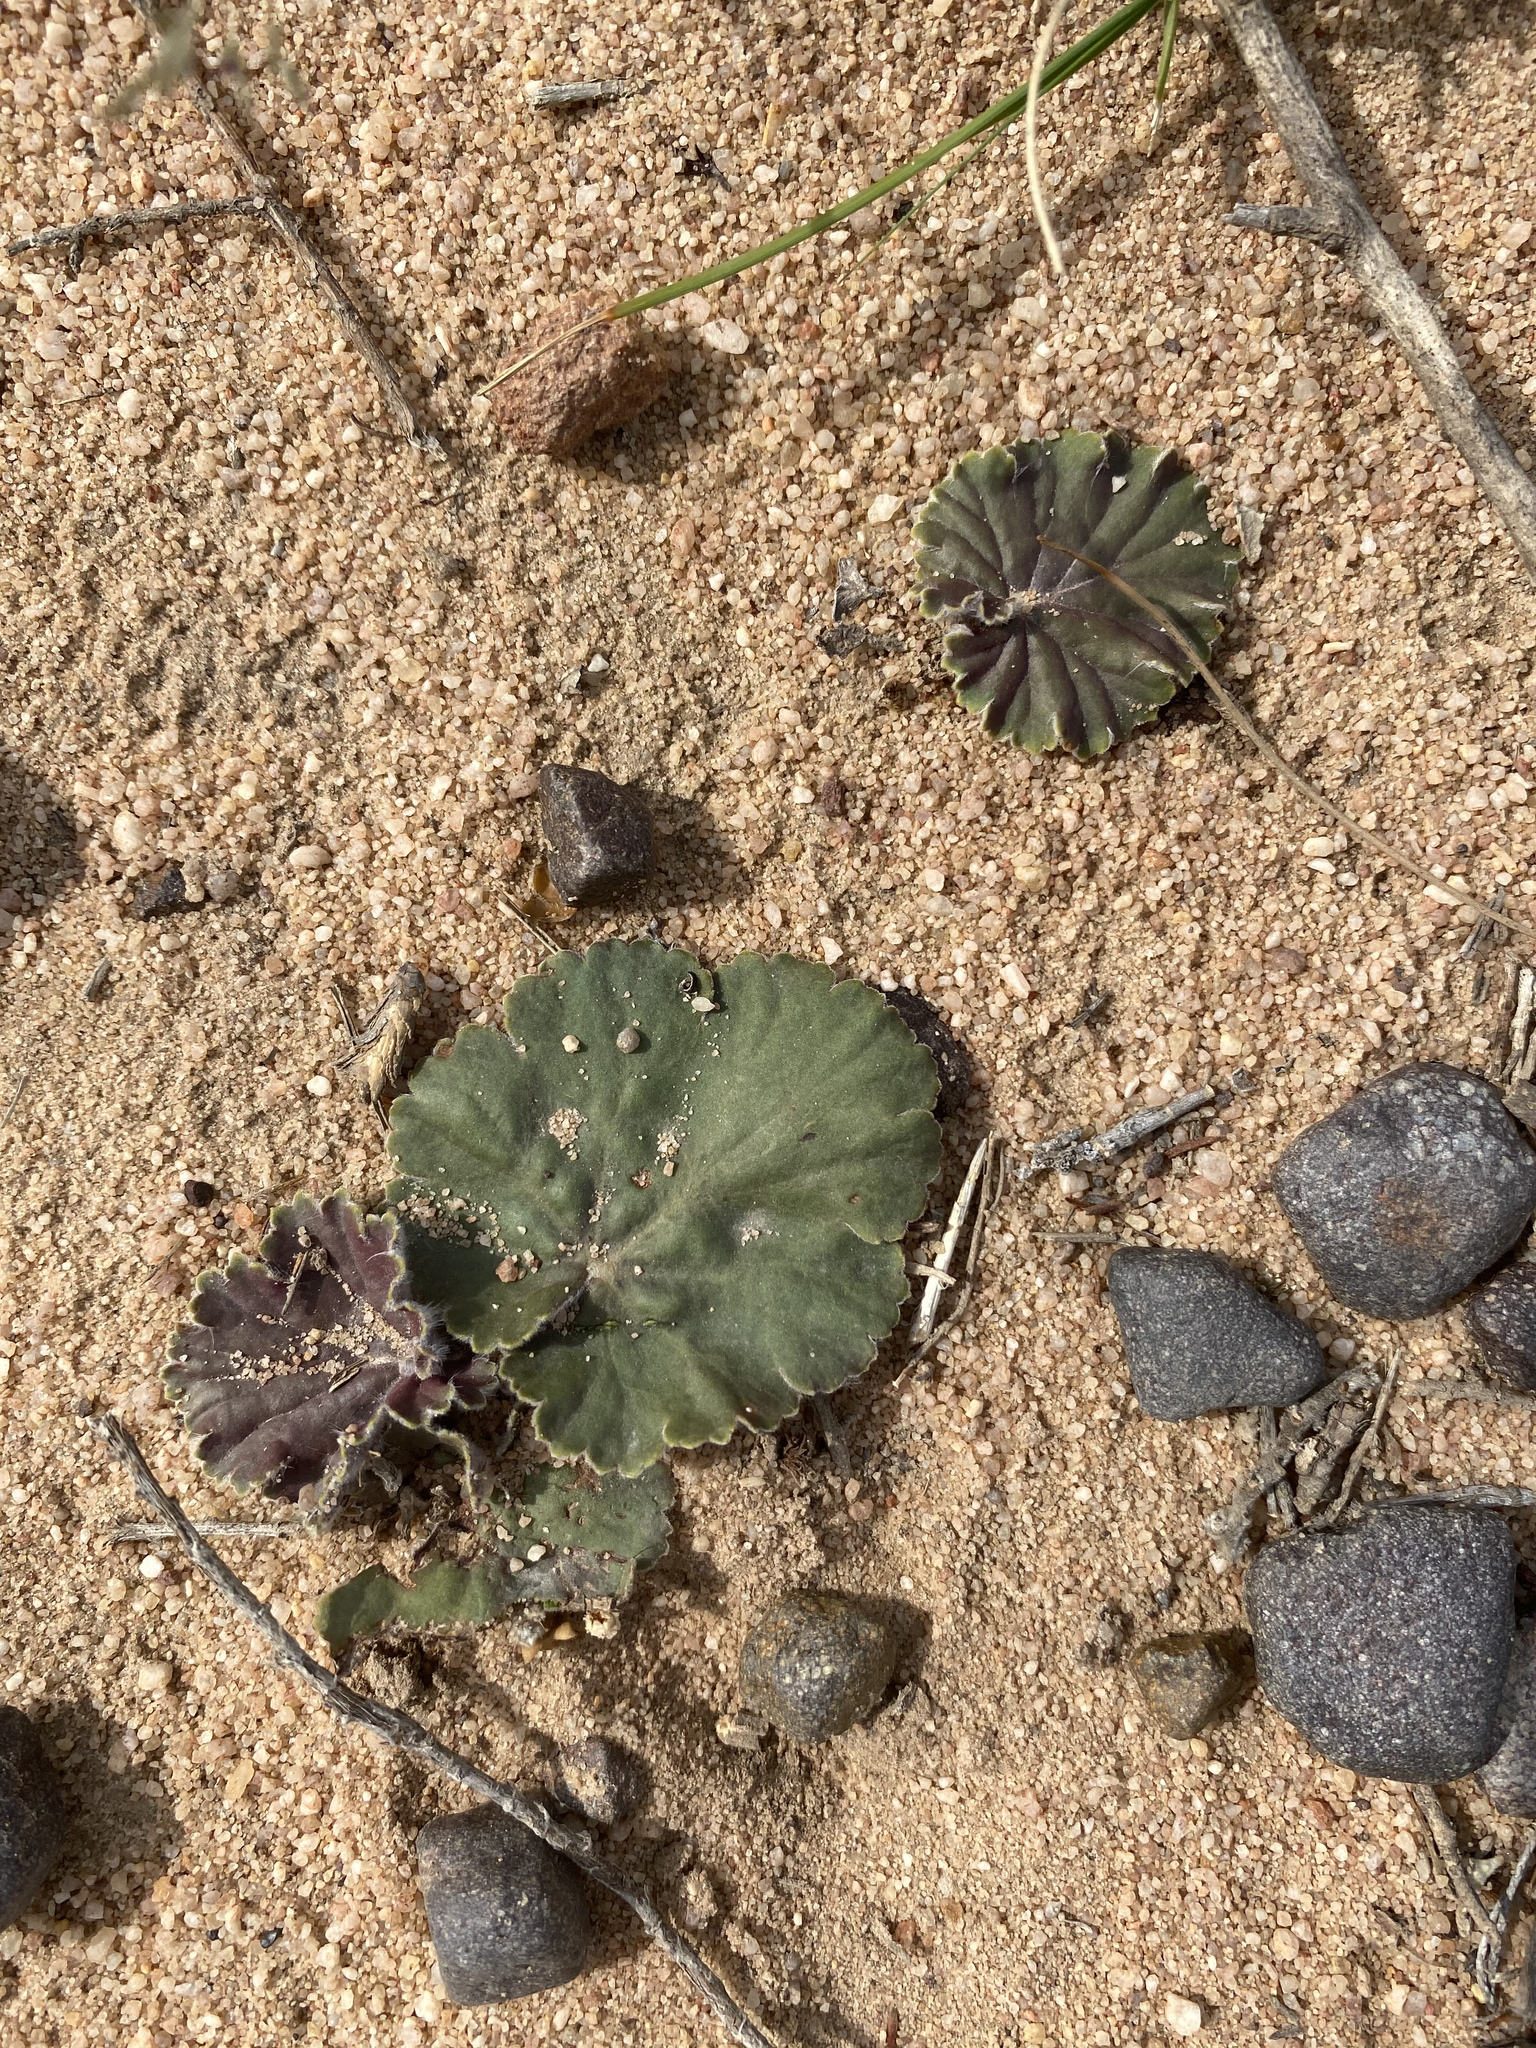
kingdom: Plantae
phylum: Tracheophyta
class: Magnoliopsida
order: Geraniales
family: Geraniaceae
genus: Pelargonium
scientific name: Pelargonium pulverulentum
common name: Powdered-leaf pelargonium
